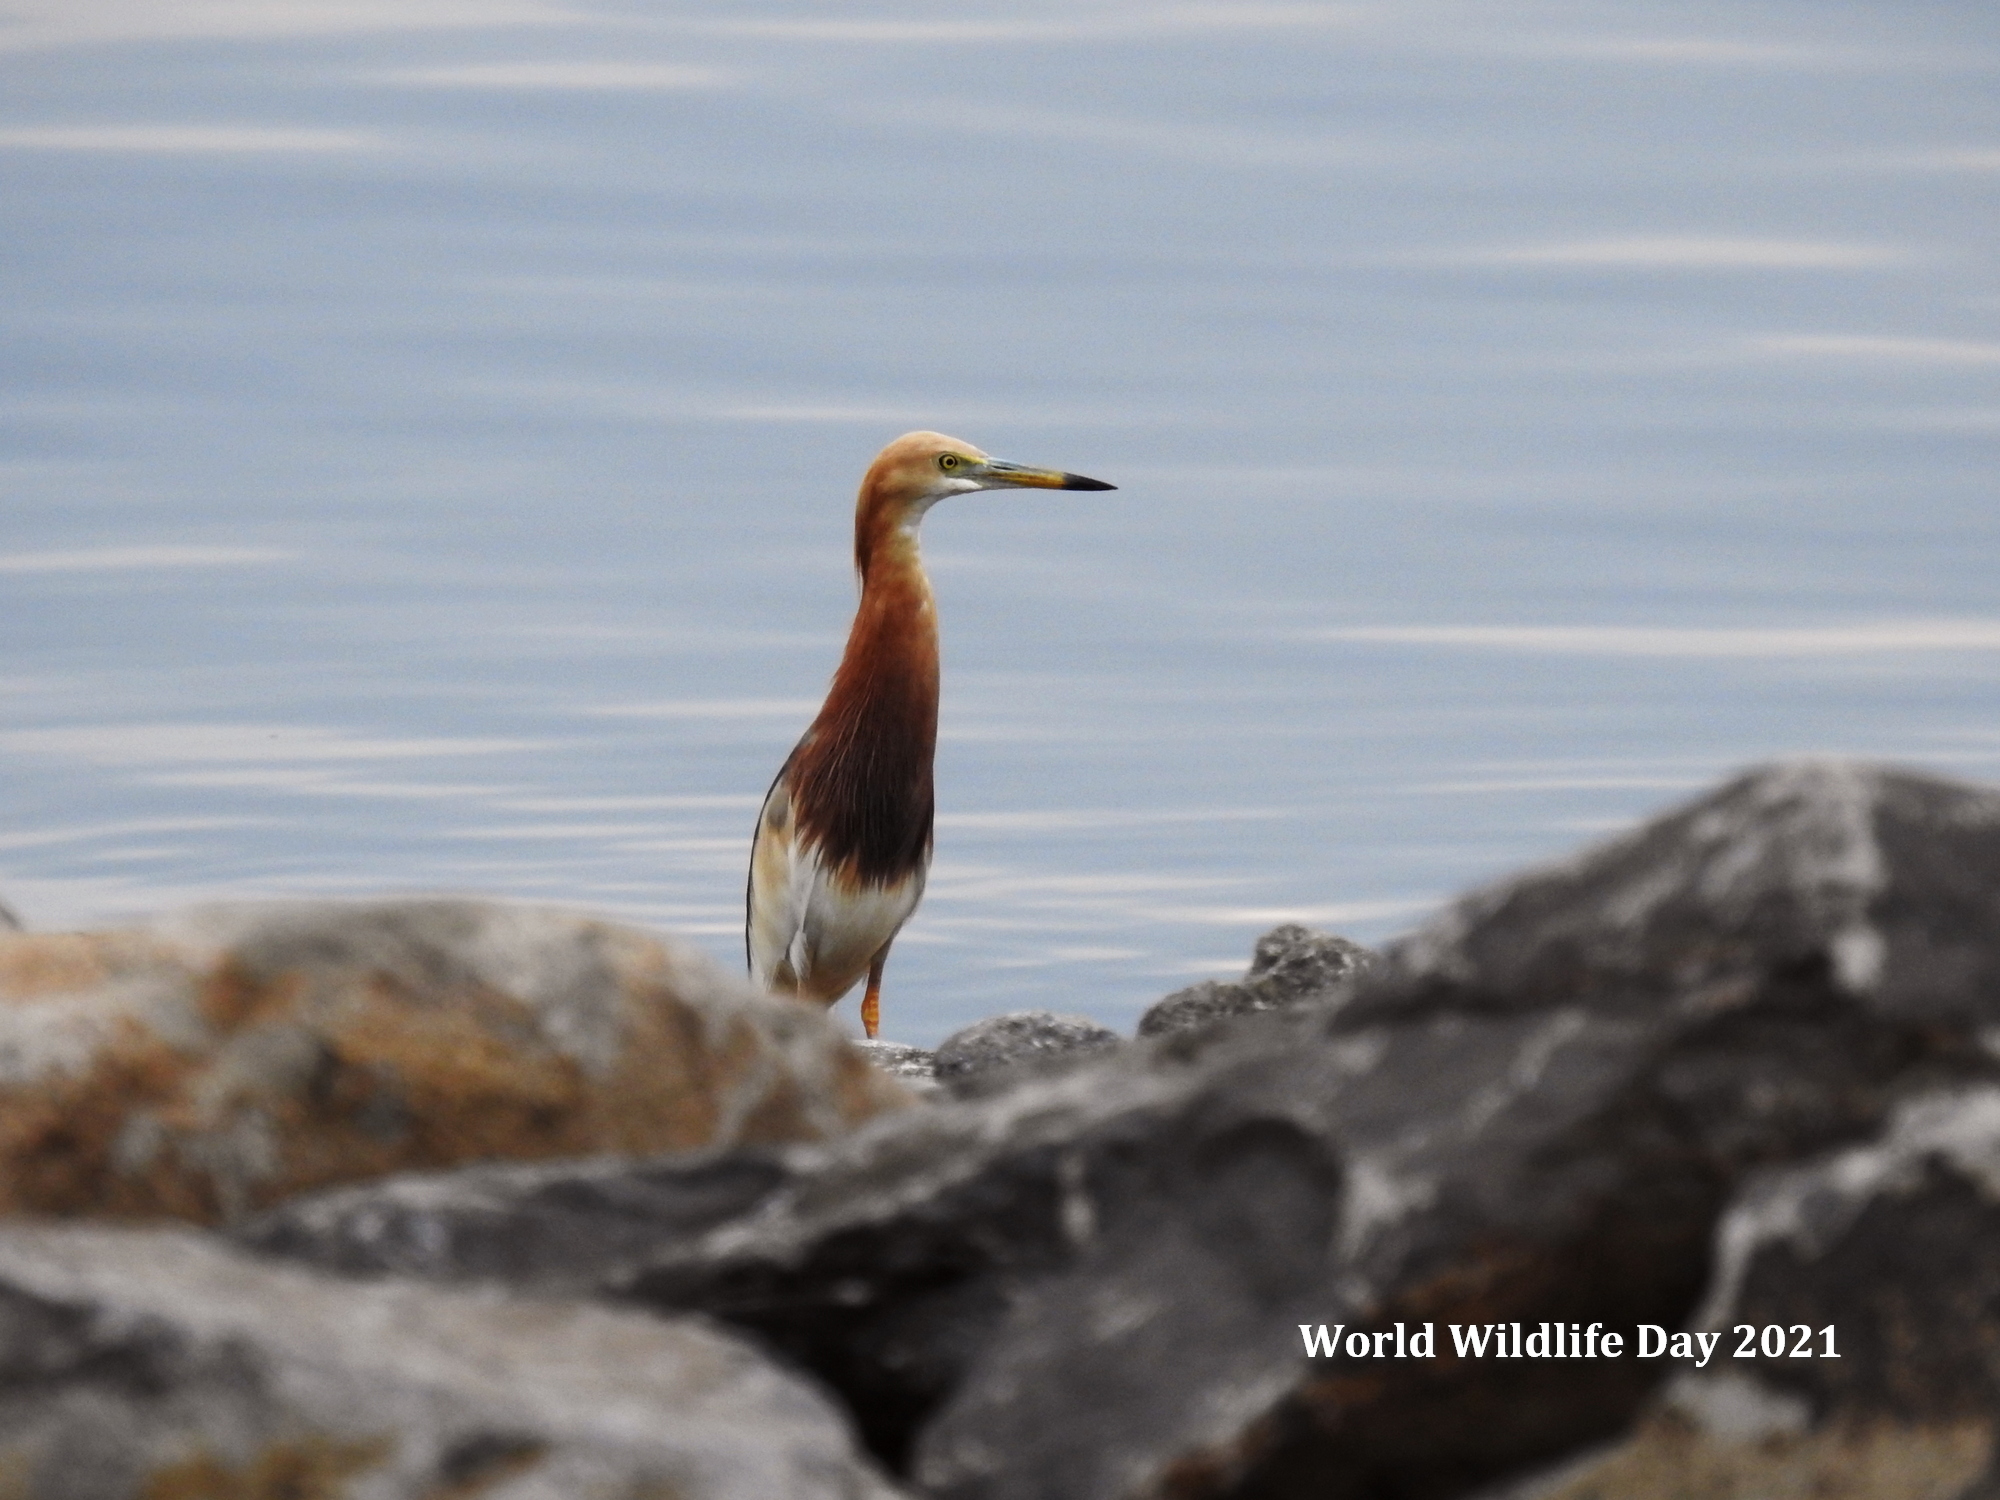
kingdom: Animalia
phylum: Chordata
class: Aves
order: Pelecaniformes
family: Ardeidae
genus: Ardeola
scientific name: Ardeola speciosa
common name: Javan pond heron
